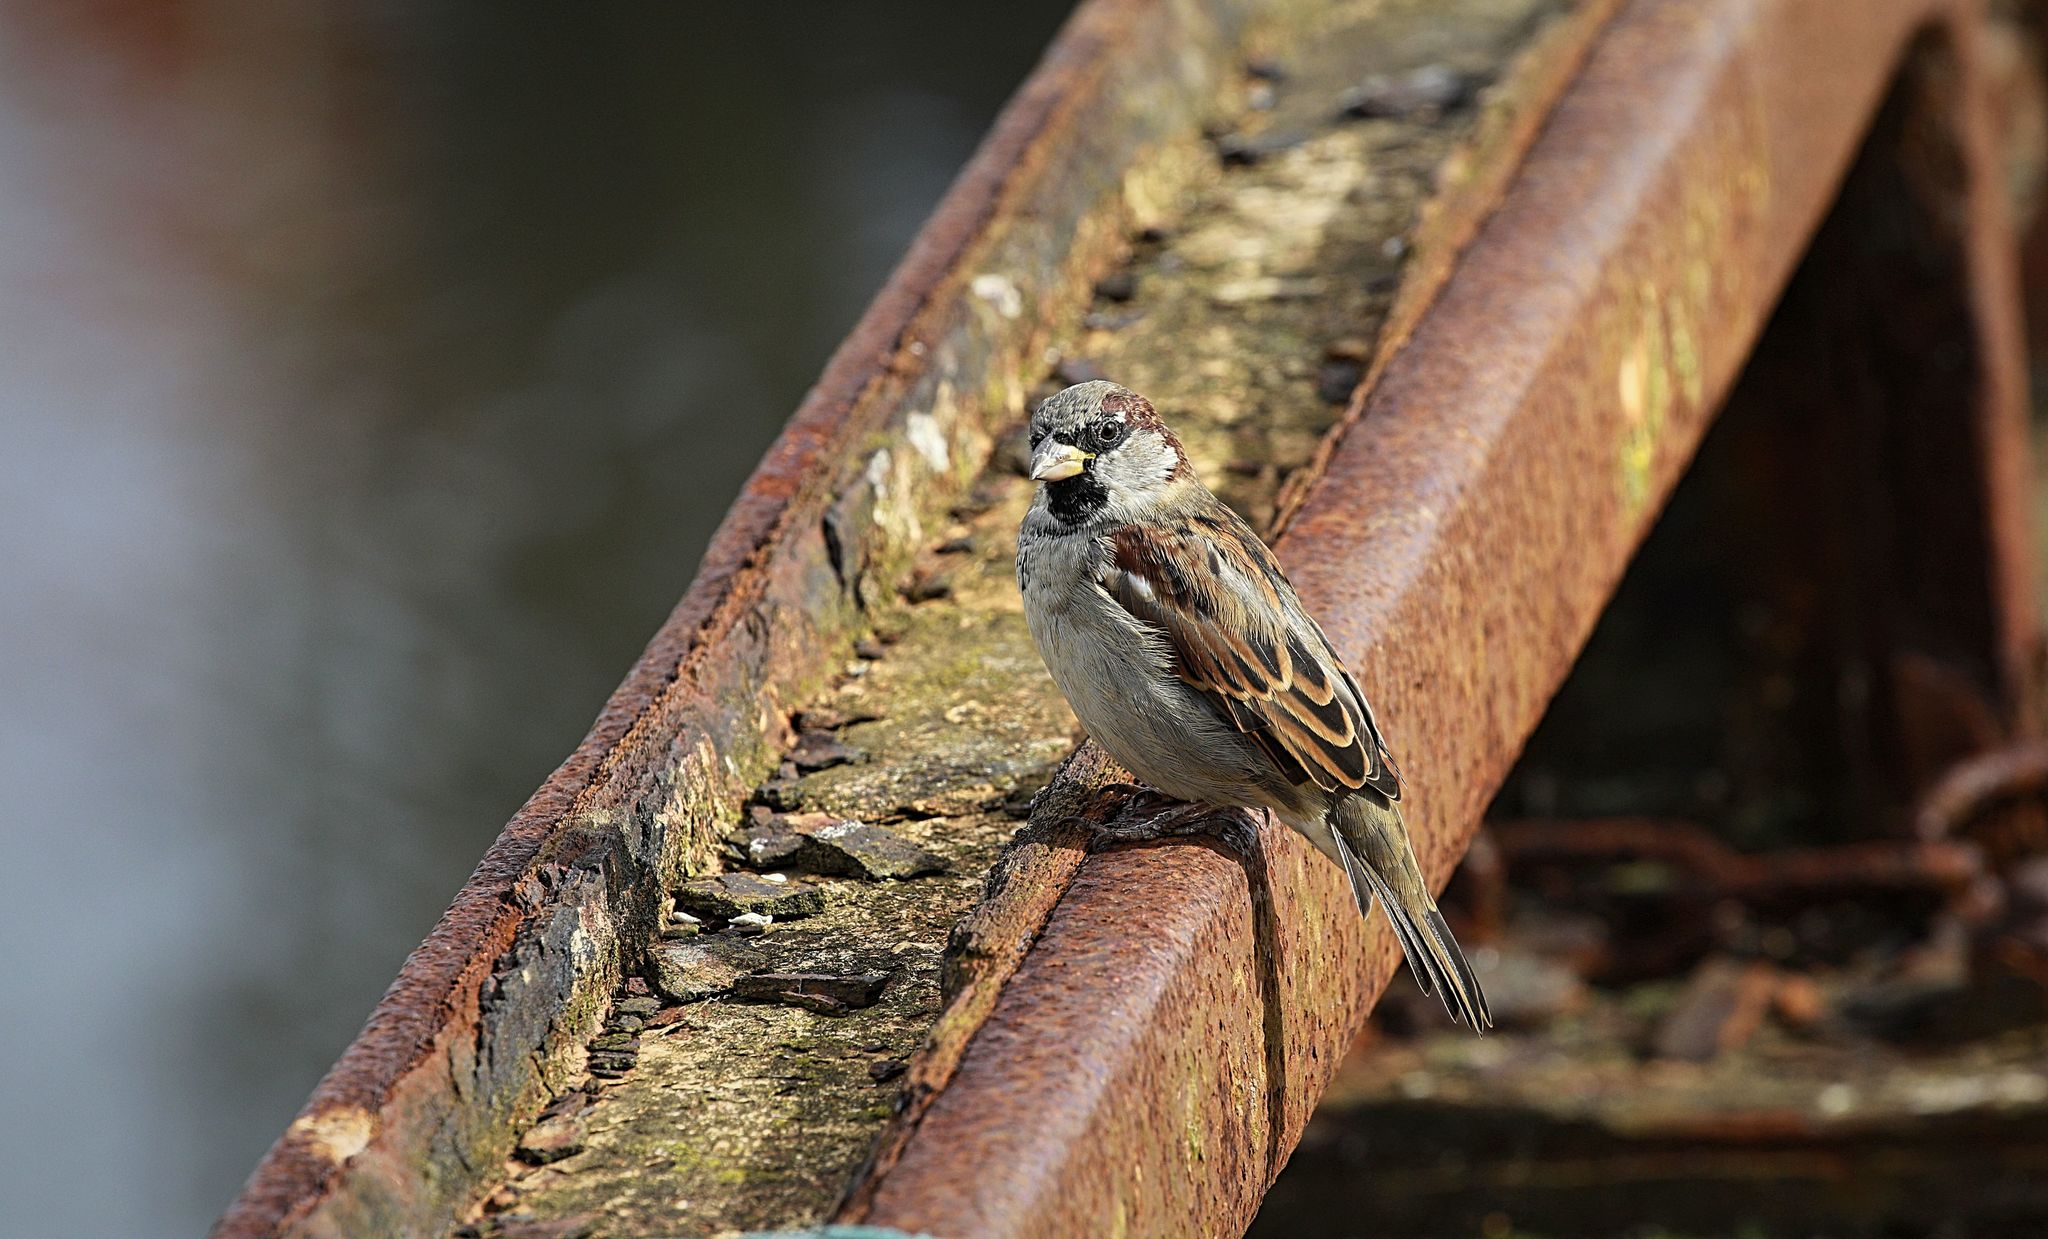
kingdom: Animalia
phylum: Chordata
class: Aves
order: Passeriformes
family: Passeridae
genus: Passer
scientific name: Passer domesticus
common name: House sparrow
